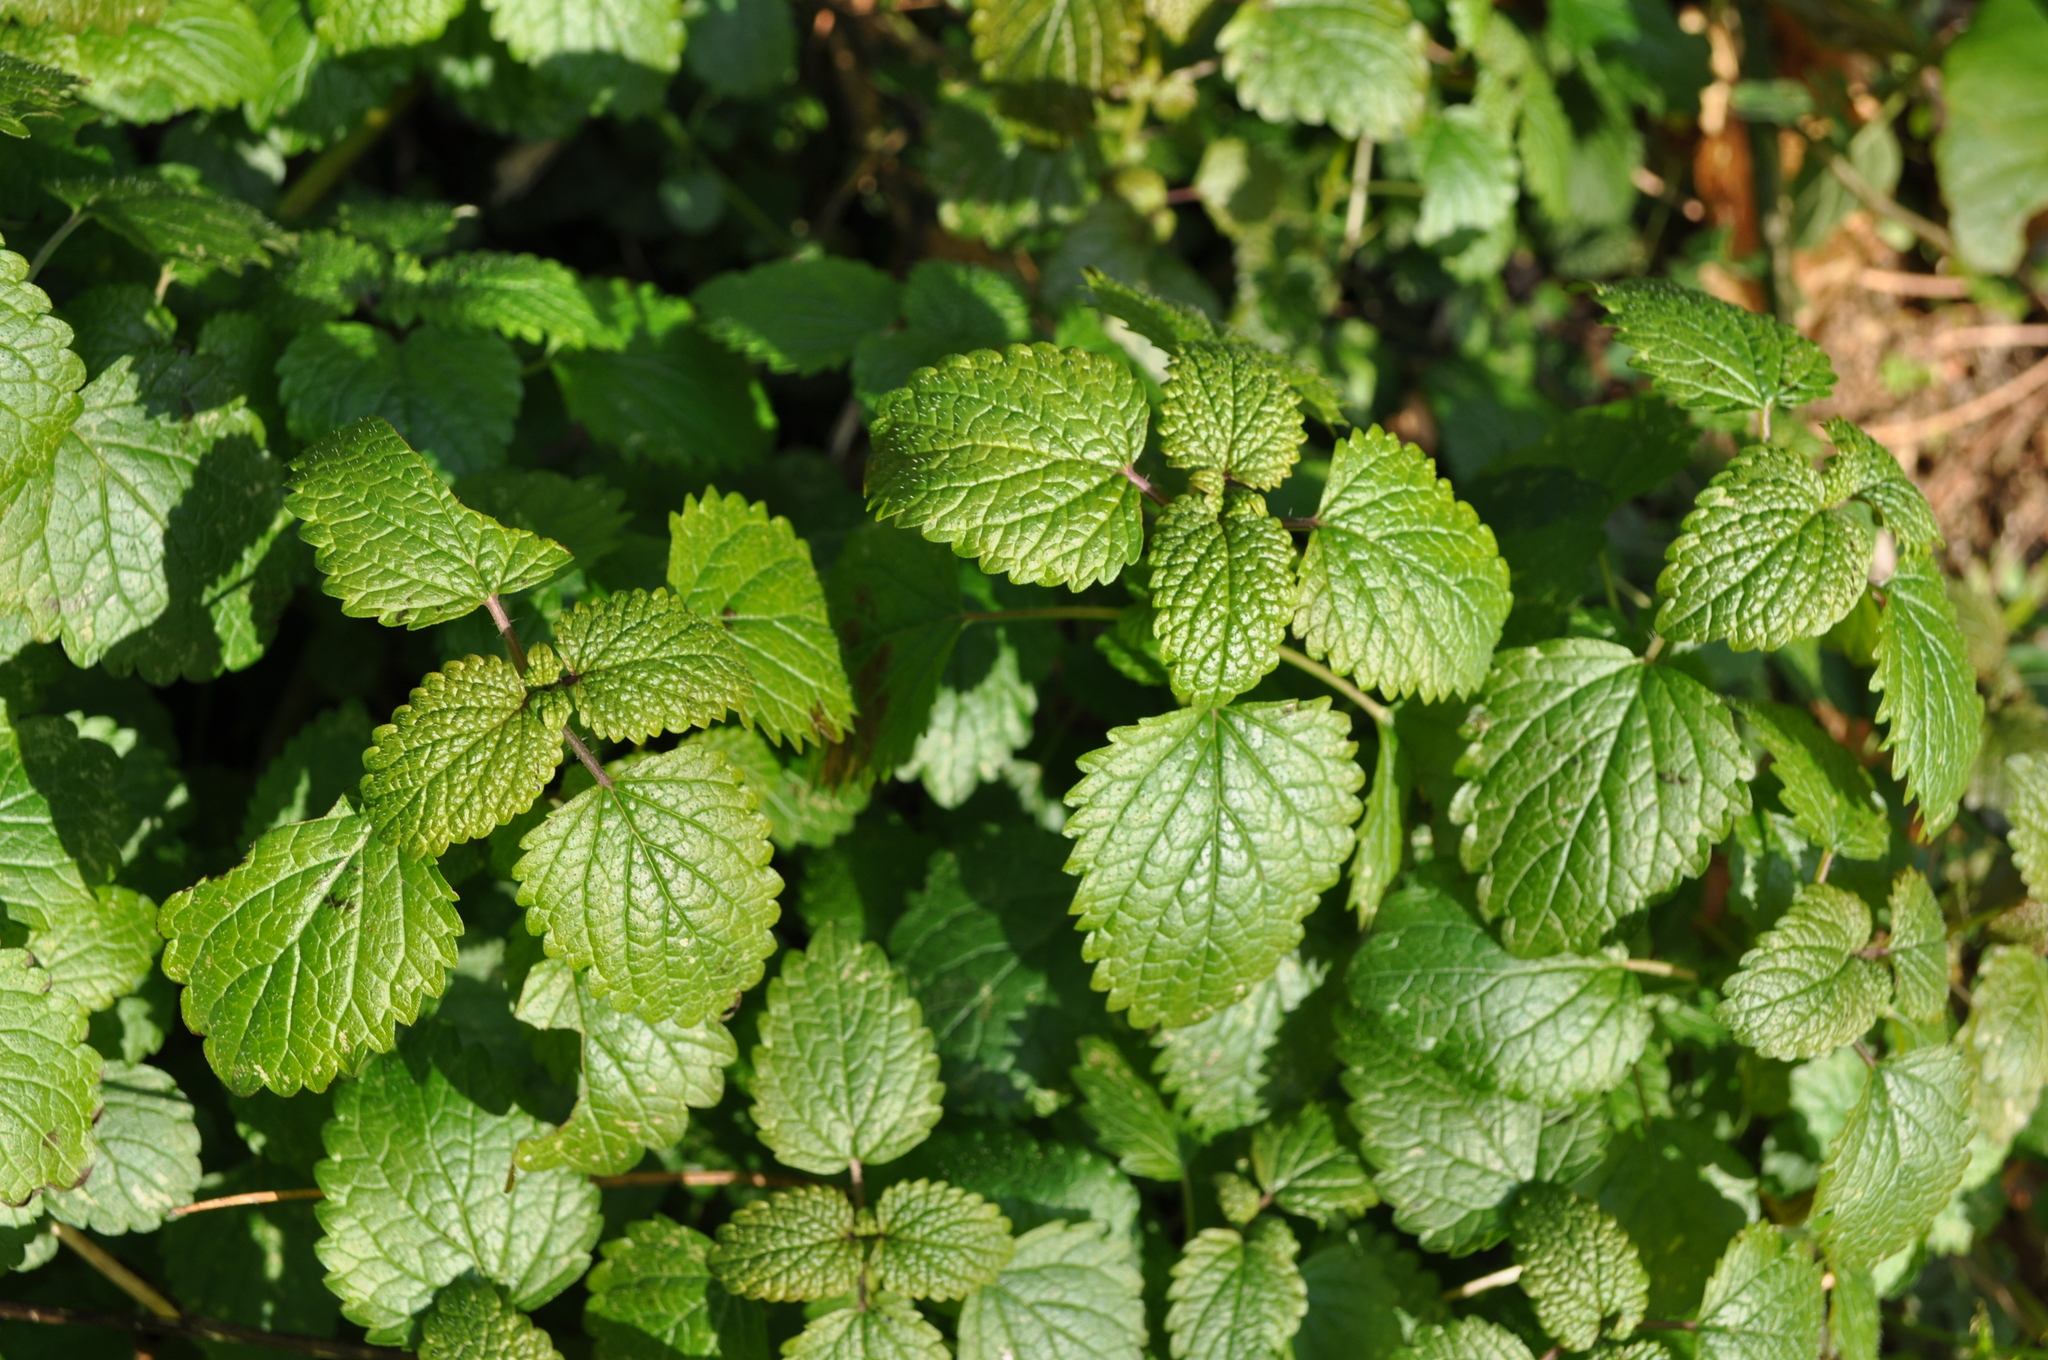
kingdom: Plantae
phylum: Tracheophyta
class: Magnoliopsida
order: Lamiales
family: Lamiaceae
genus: Melissa
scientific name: Melissa officinalis
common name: Balm
